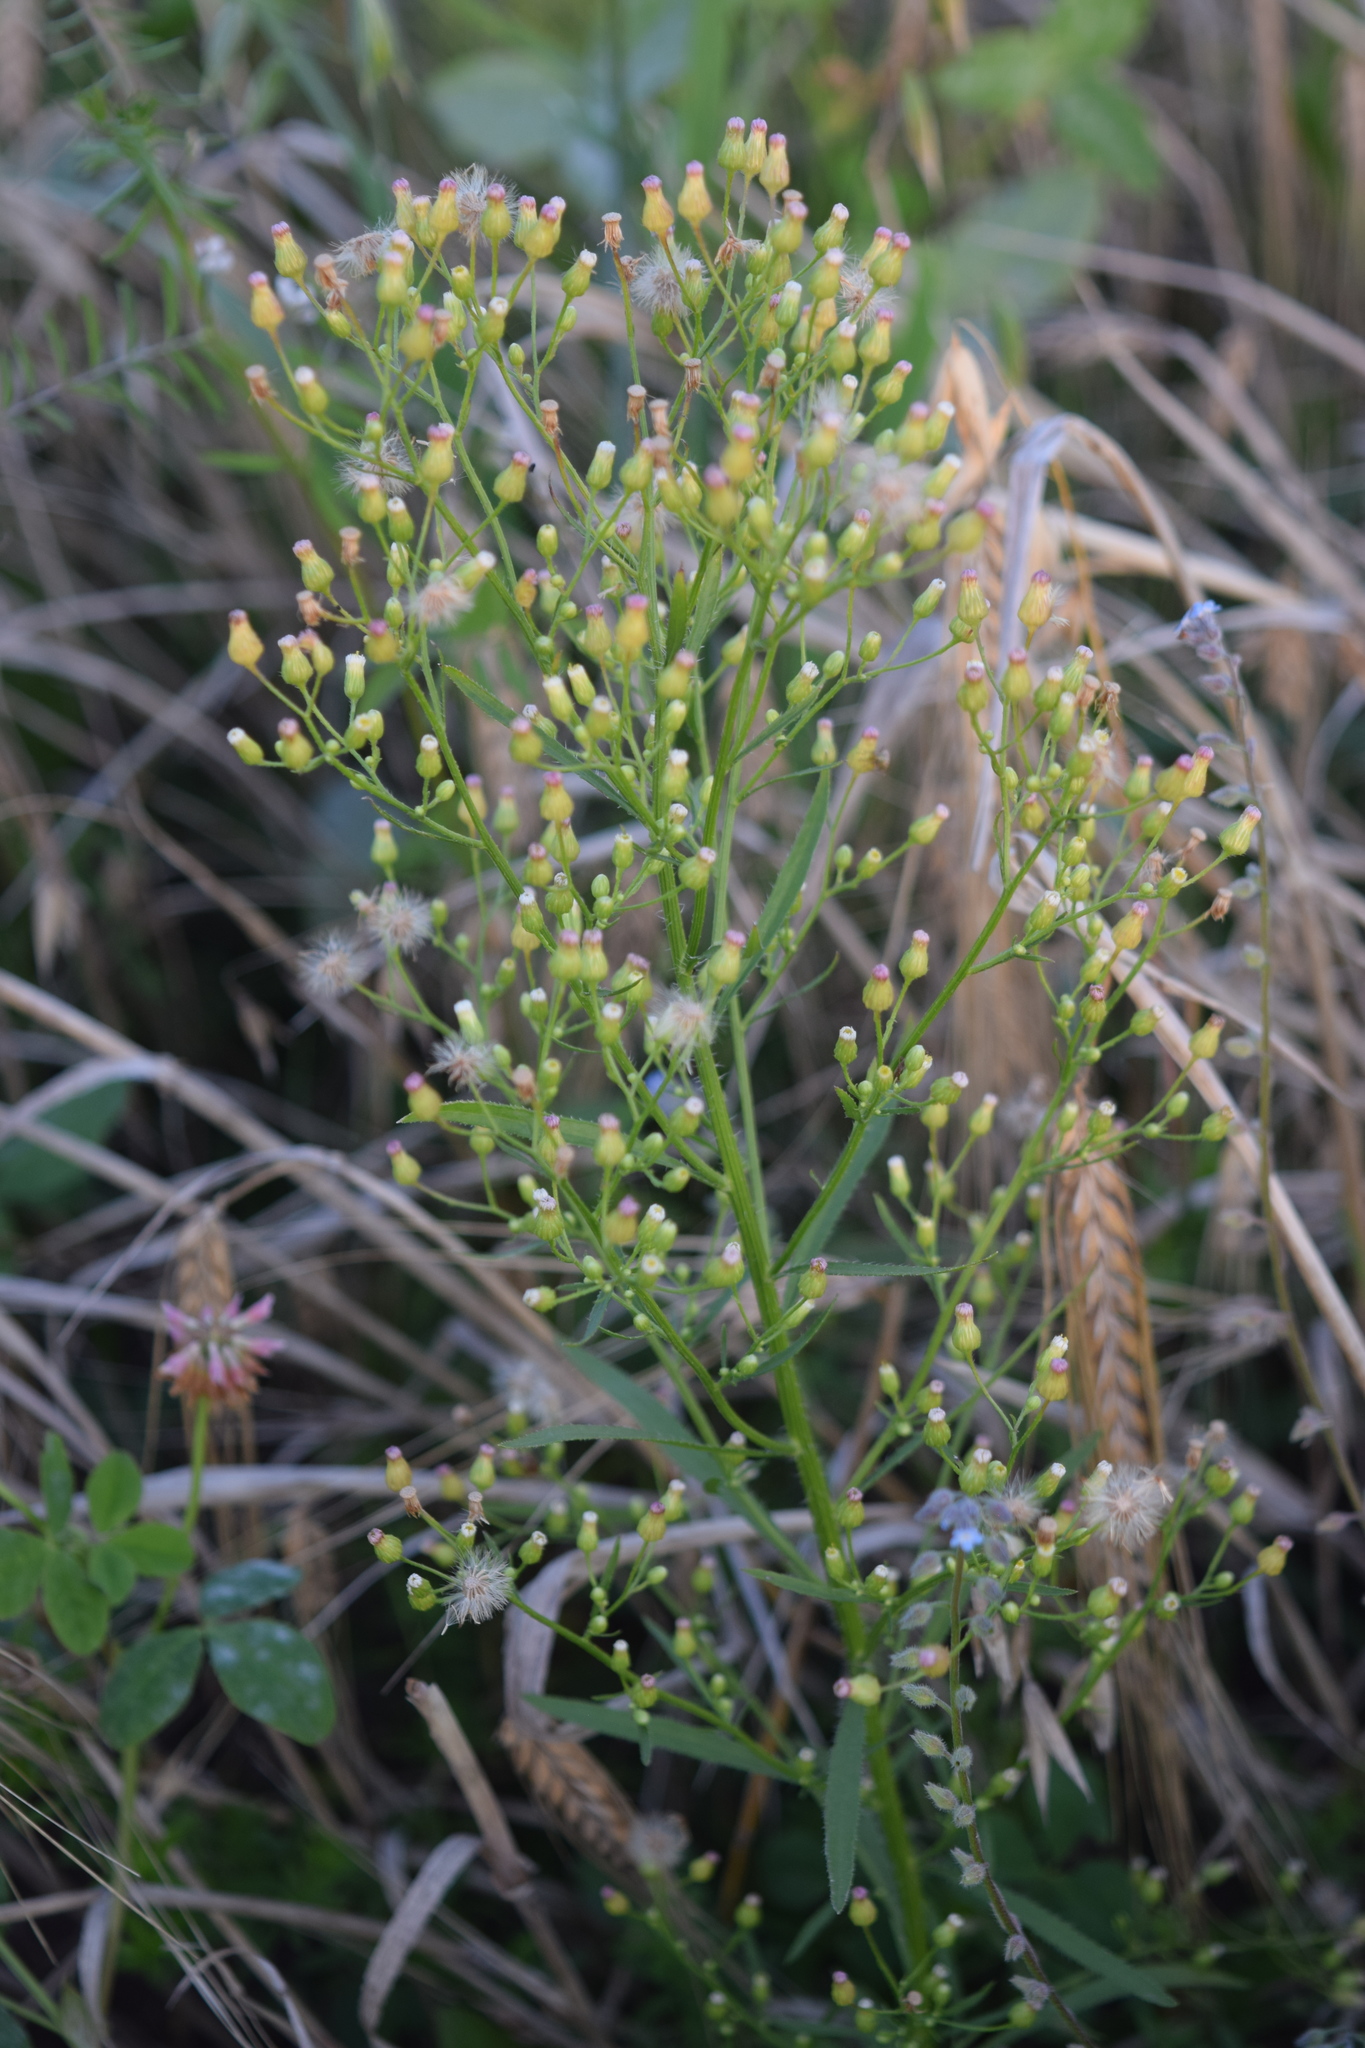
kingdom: Plantae
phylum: Tracheophyta
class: Magnoliopsida
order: Asterales
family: Asteraceae
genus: Erigeron
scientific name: Erigeron canadensis
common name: Canadian fleabane
